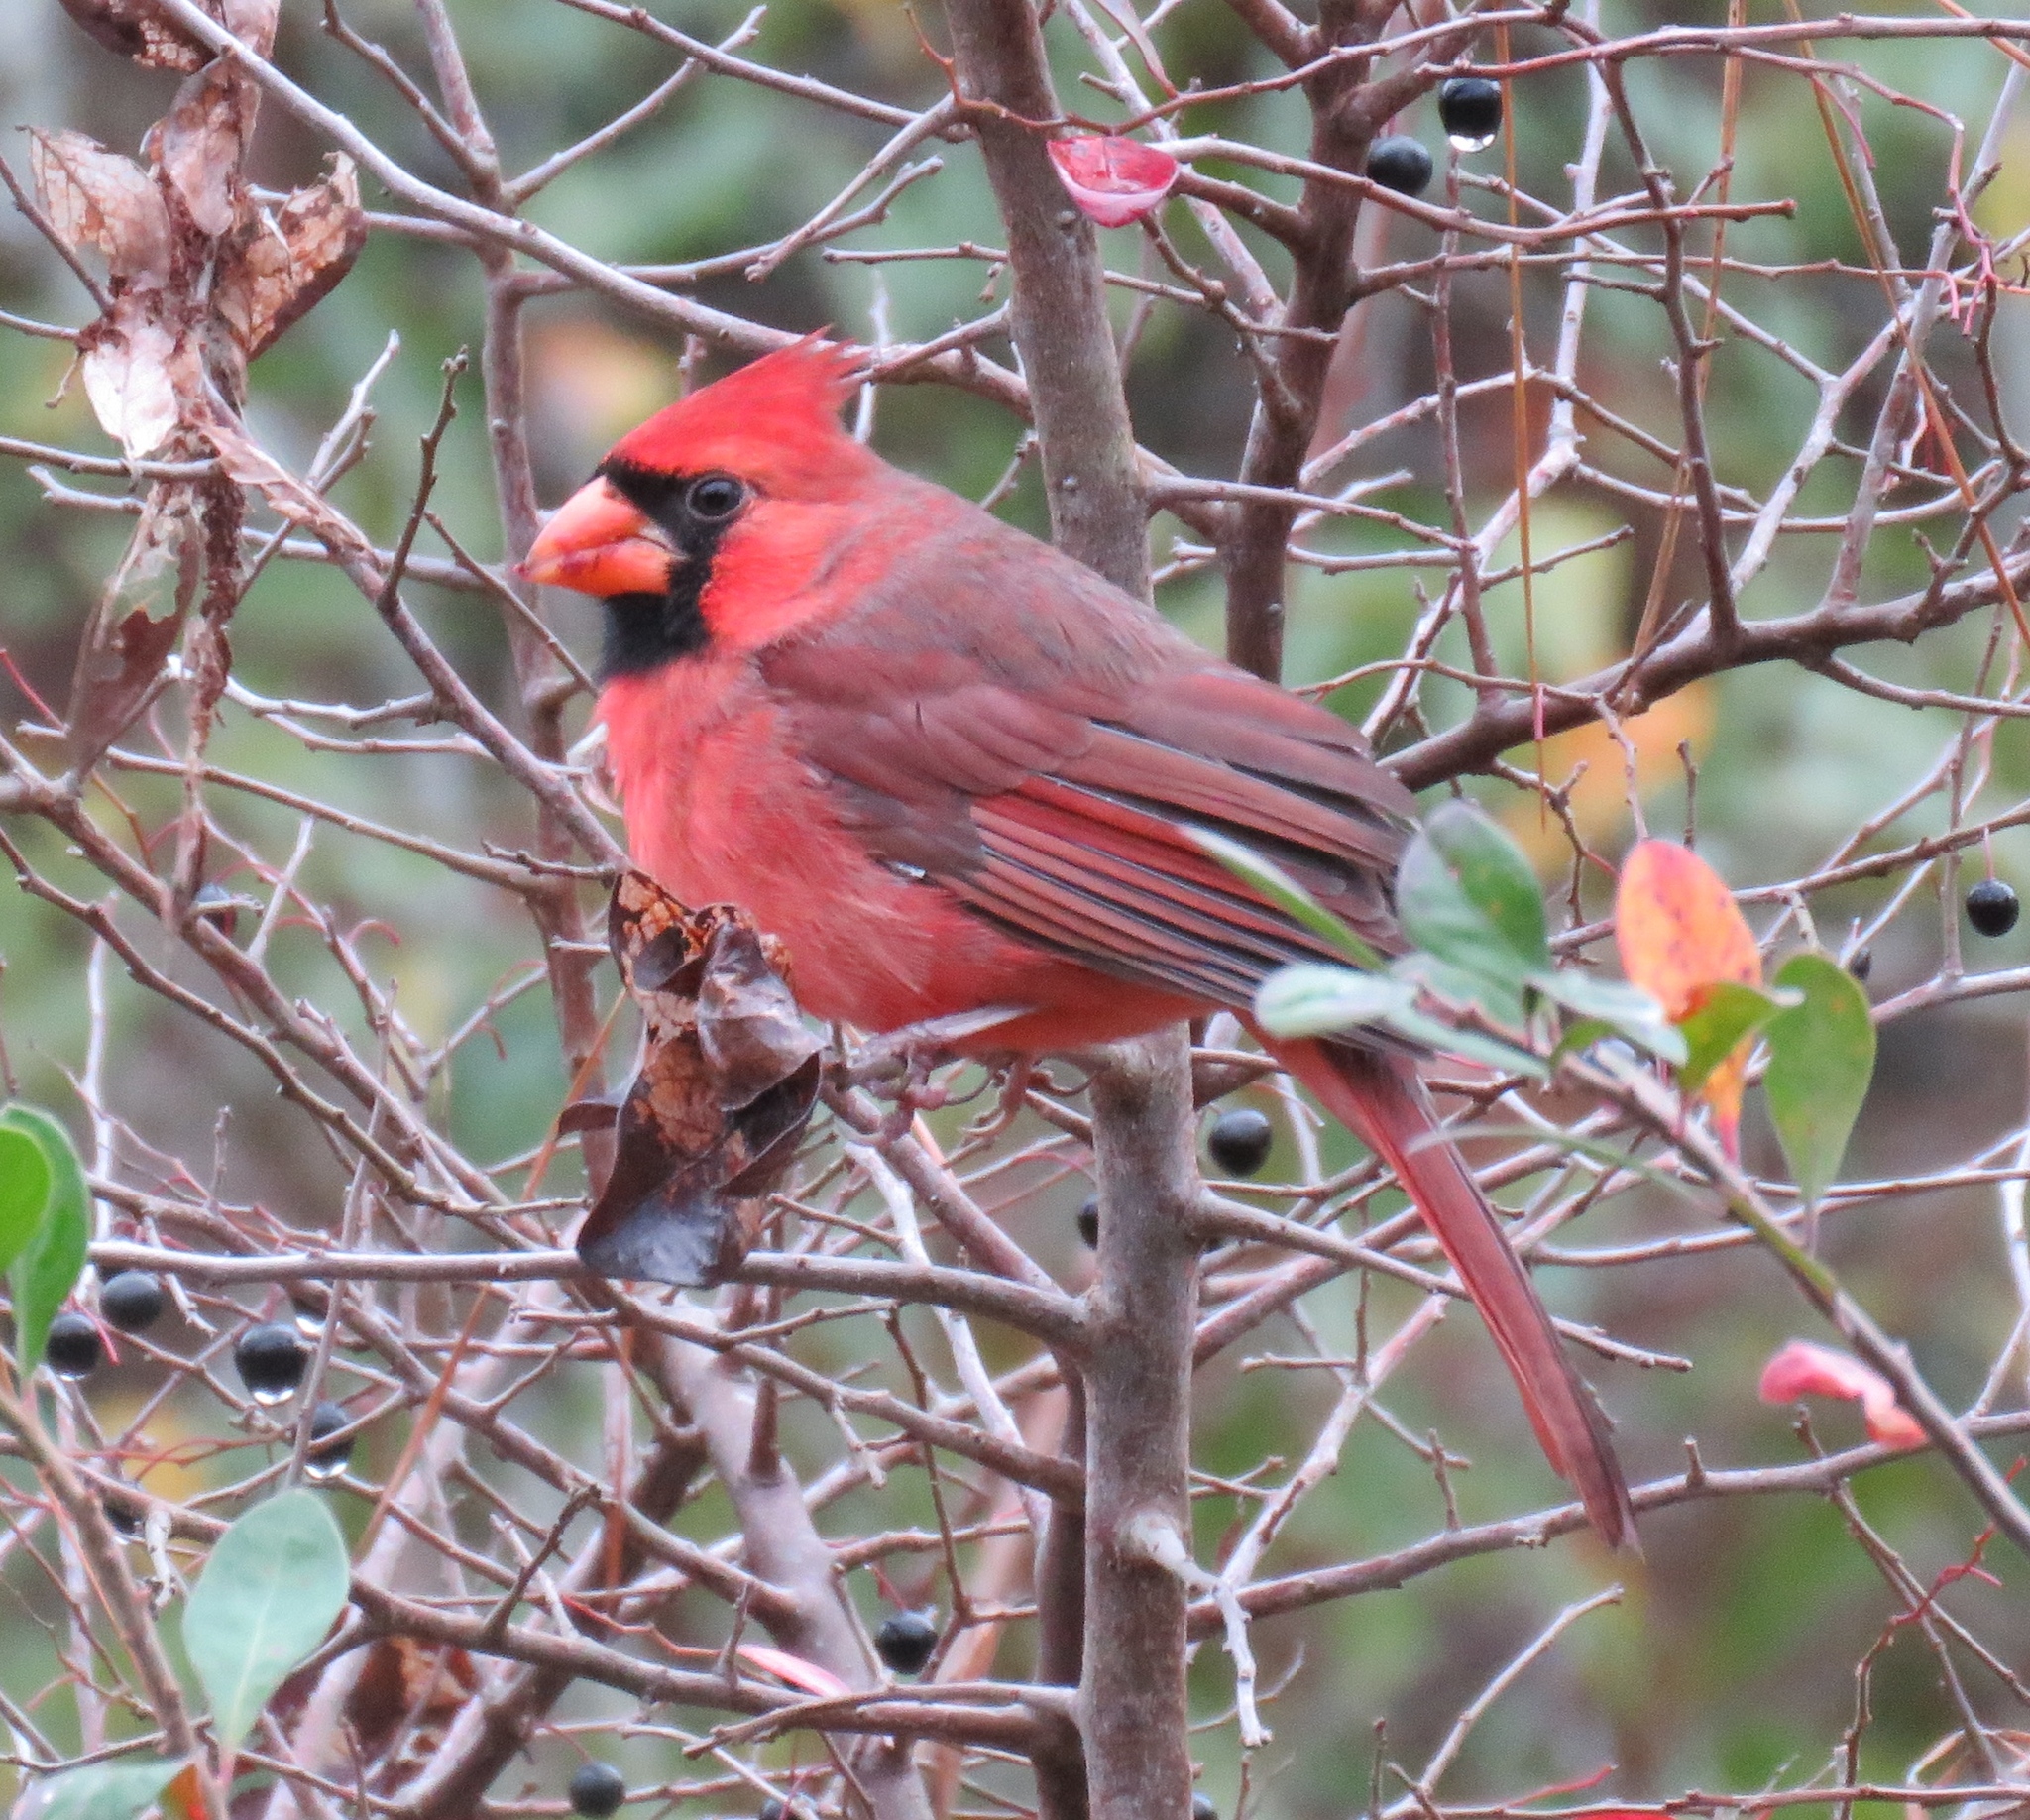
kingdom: Animalia
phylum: Chordata
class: Aves
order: Passeriformes
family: Cardinalidae
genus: Cardinalis
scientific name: Cardinalis cardinalis
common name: Northern cardinal
